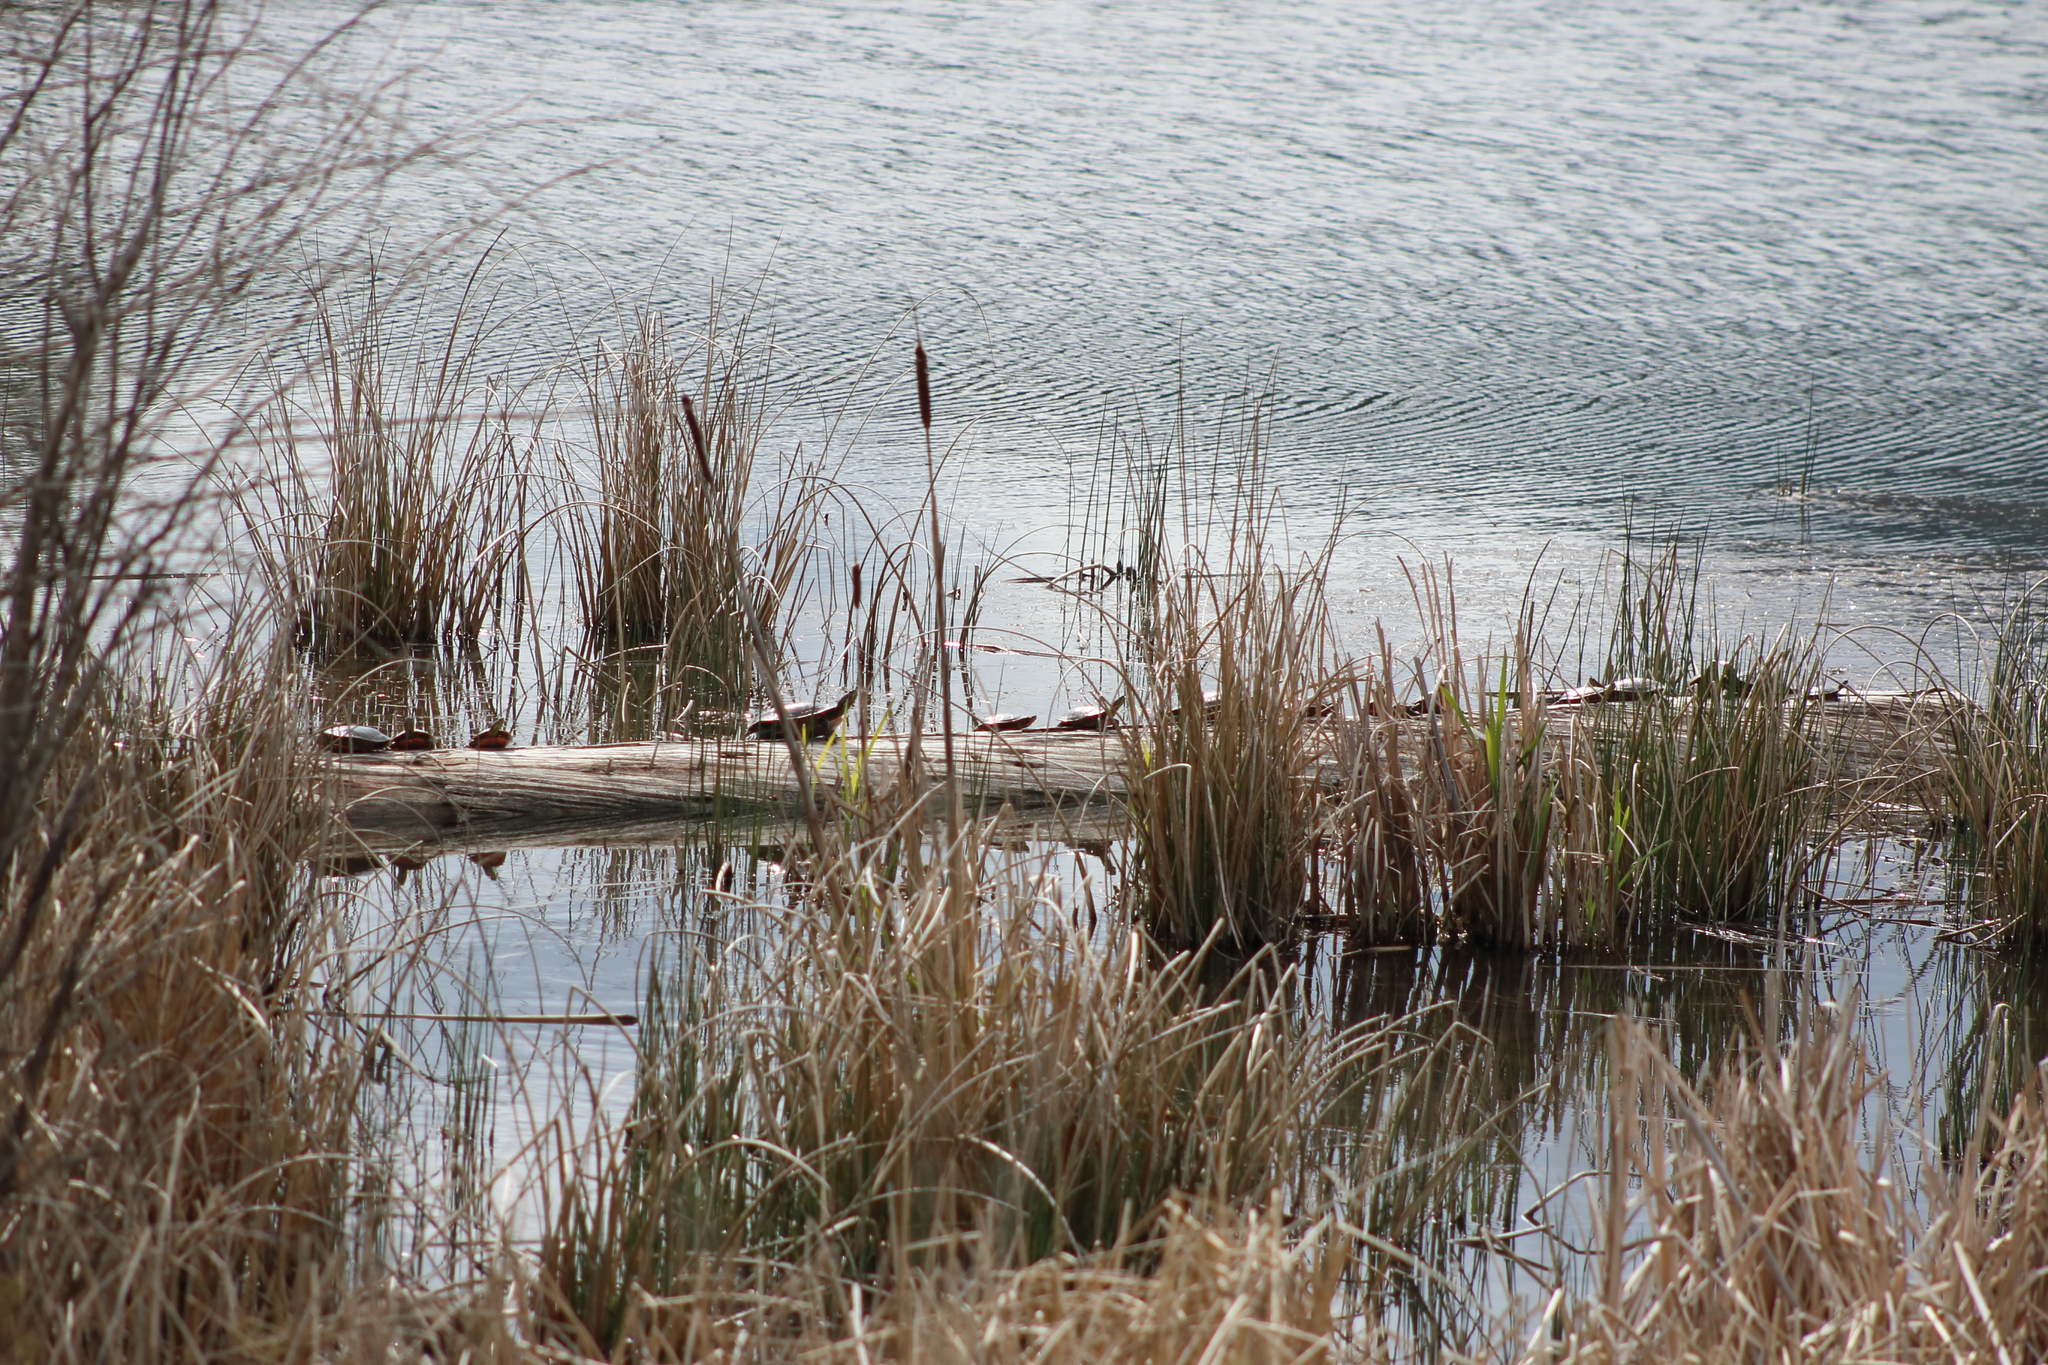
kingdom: Animalia
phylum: Chordata
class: Testudines
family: Emydidae
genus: Chrysemys
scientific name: Chrysemys picta
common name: Painted turtle
